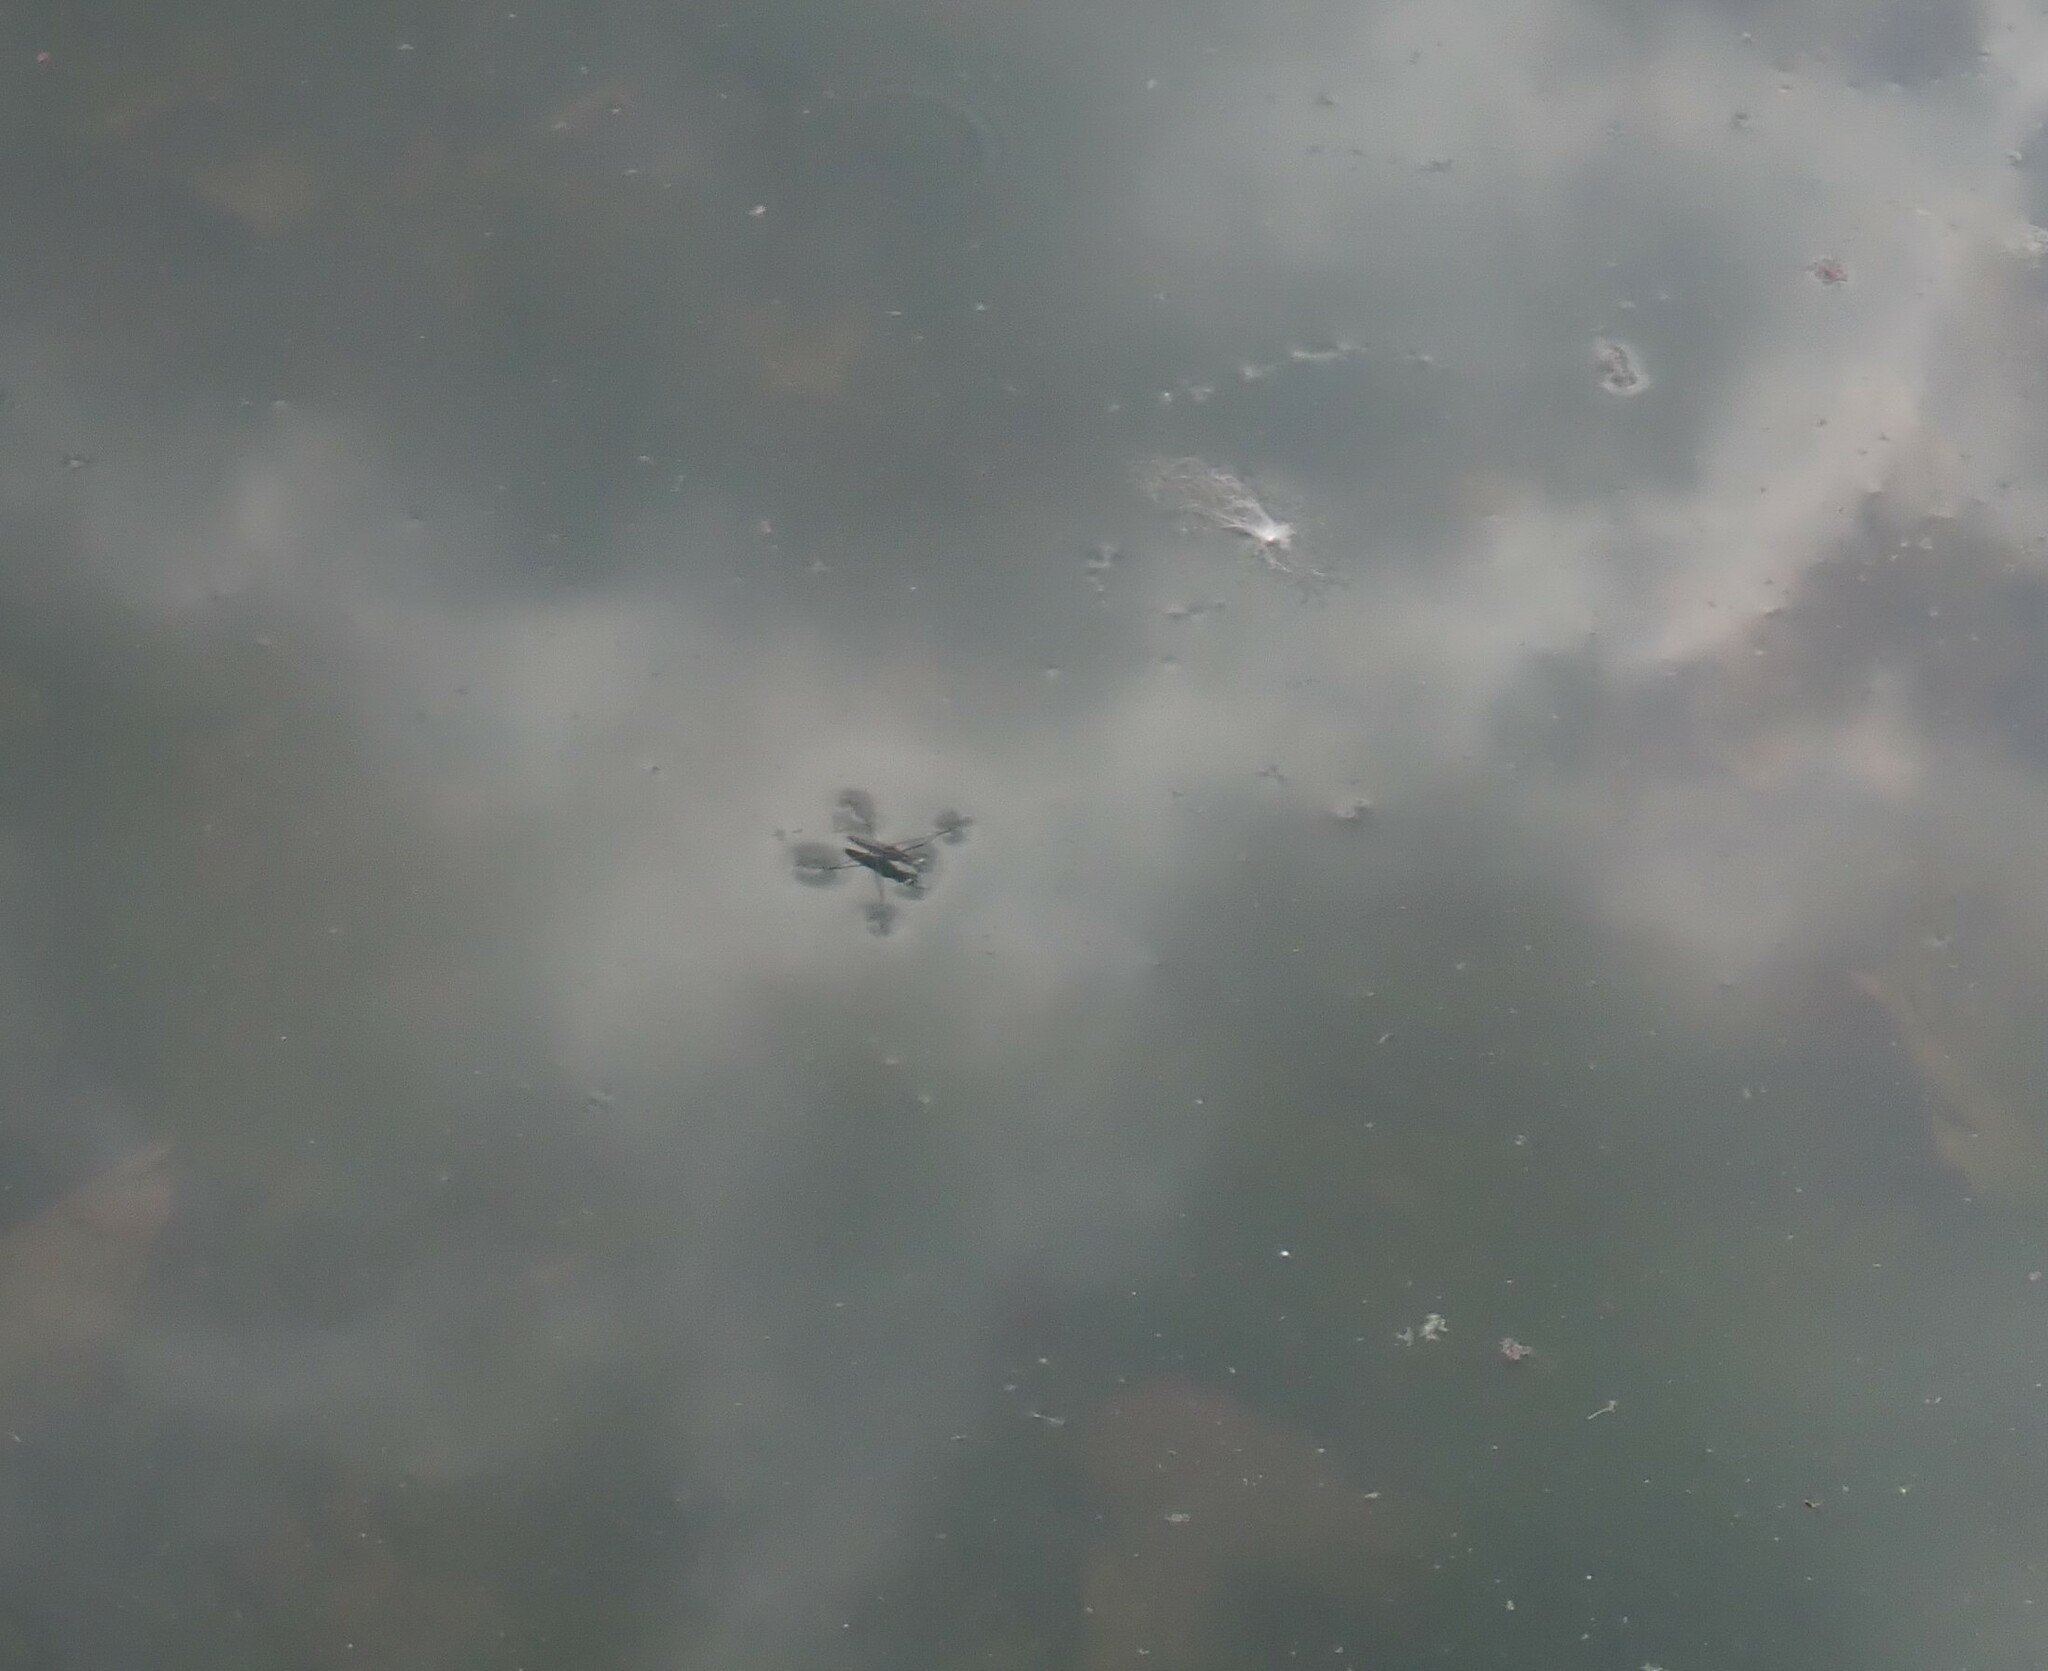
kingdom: Animalia
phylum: Arthropoda
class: Insecta
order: Hemiptera
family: Gerridae
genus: Gerris
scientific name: Gerris
